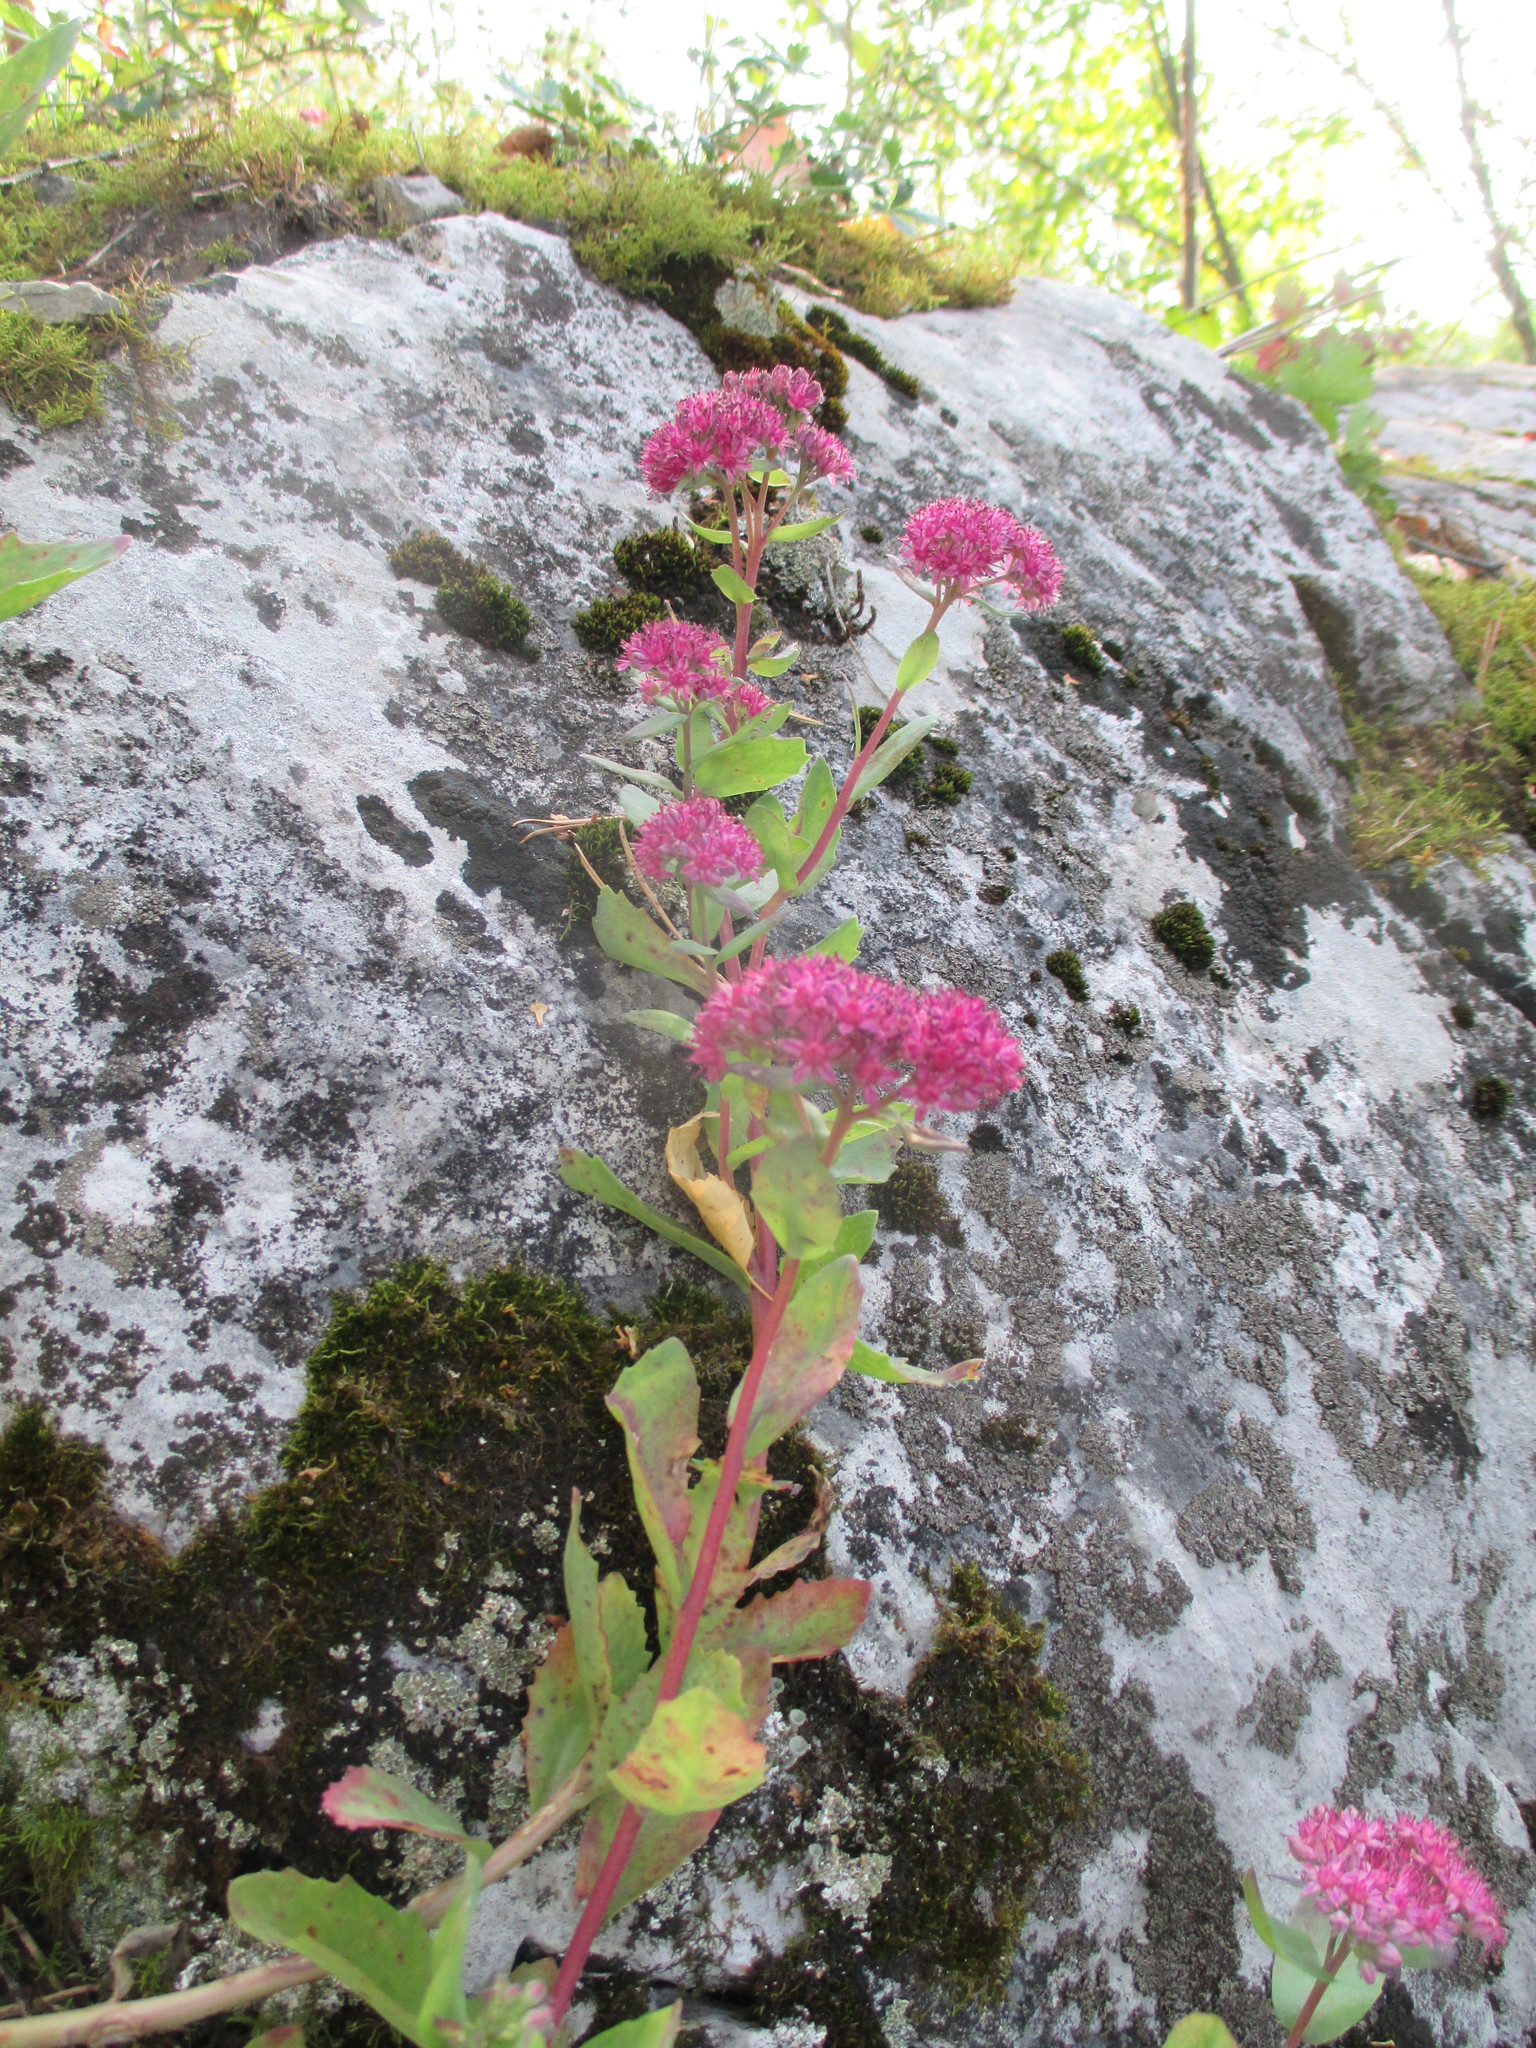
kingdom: Plantae
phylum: Tracheophyta
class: Magnoliopsida
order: Saxifragales
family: Crassulaceae
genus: Hylotelephium
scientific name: Hylotelephium telephium
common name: Live-forever
